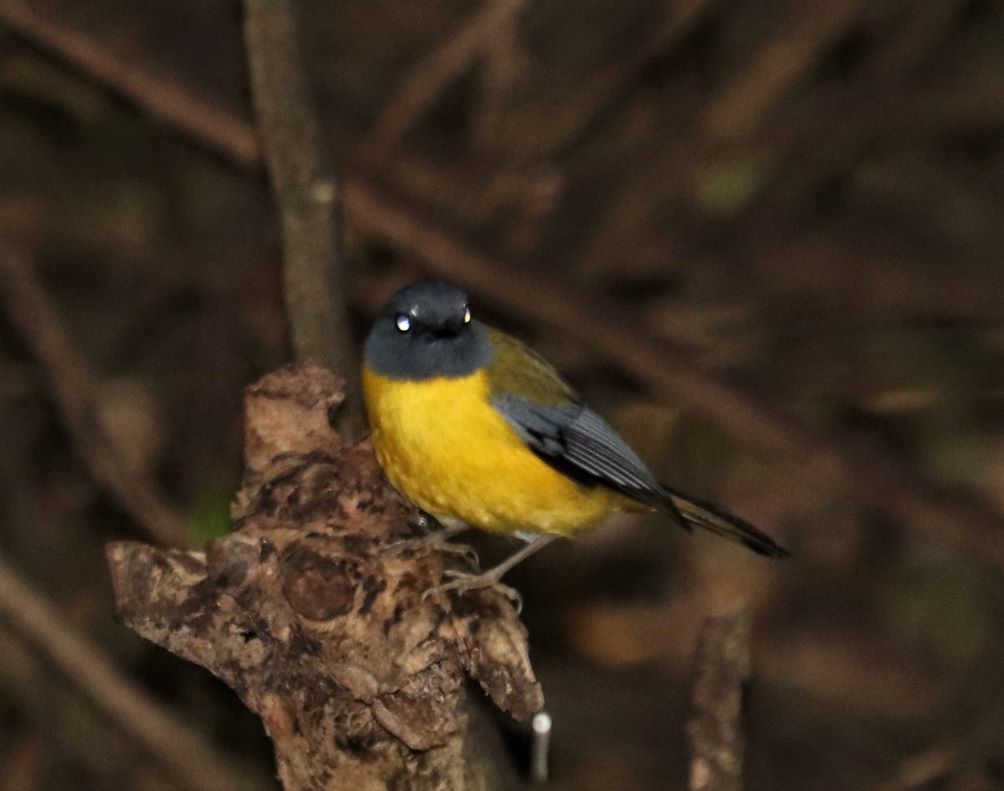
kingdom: Animalia
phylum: Chordata
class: Aves
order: Passeriformes
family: Muscicapidae
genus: Pogonocichla
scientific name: Pogonocichla stellata
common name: White-starred robin
